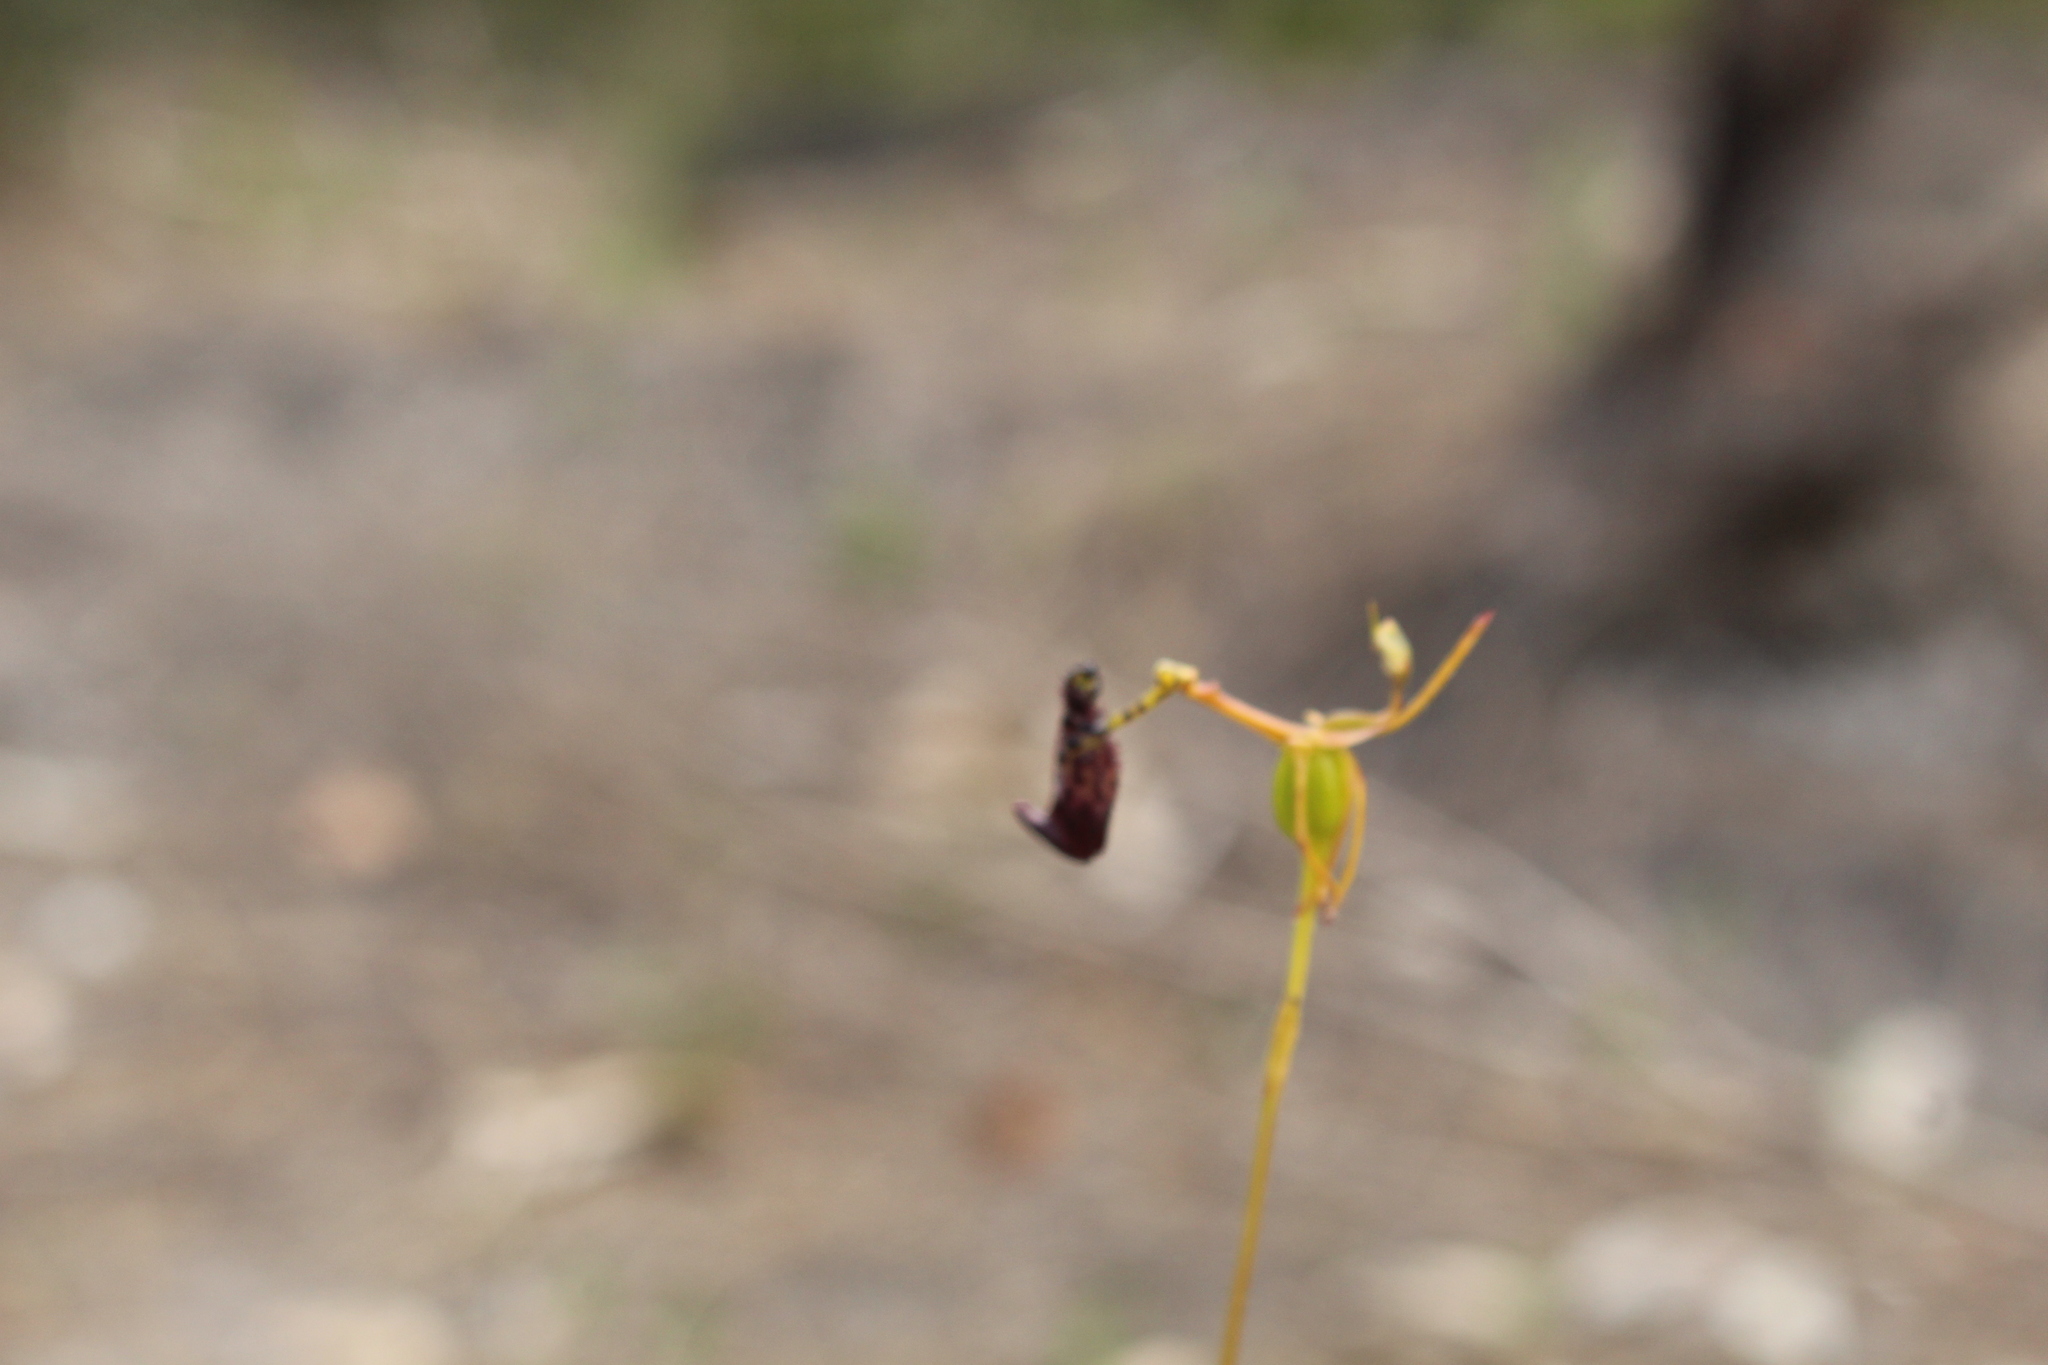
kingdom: Plantae
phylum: Tracheophyta
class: Liliopsida
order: Asparagales
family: Orchidaceae
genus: Drakaea
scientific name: Drakaea livida
